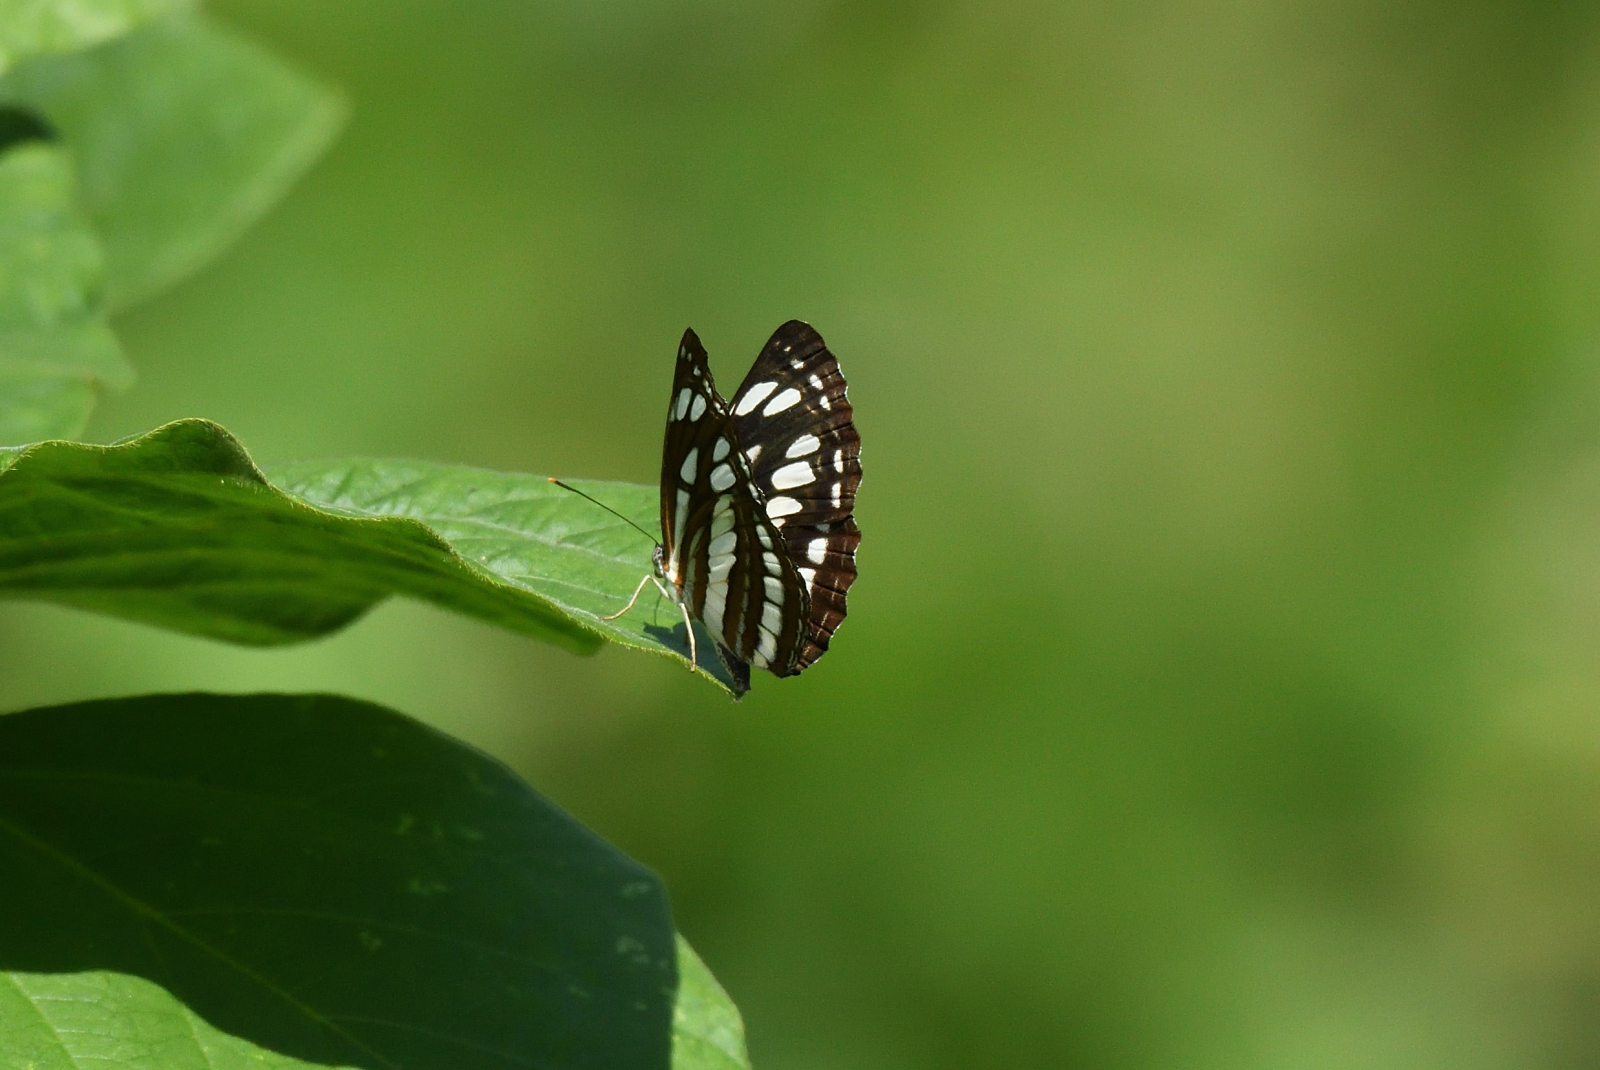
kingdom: Animalia
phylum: Arthropoda
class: Insecta
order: Lepidoptera
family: Nymphalidae
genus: Neptis
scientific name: Neptis hylas
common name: Common sailer
